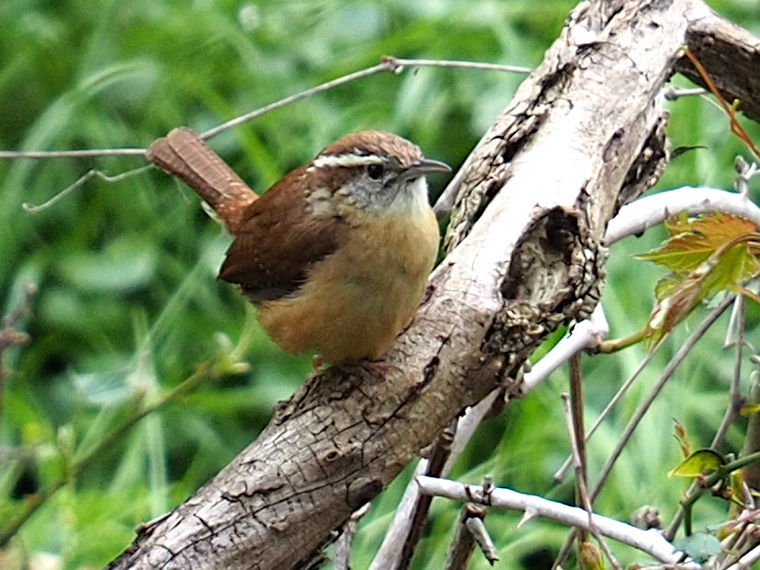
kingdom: Animalia
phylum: Chordata
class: Aves
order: Passeriformes
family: Troglodytidae
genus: Thryothorus
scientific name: Thryothorus ludovicianus
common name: Carolina wren
